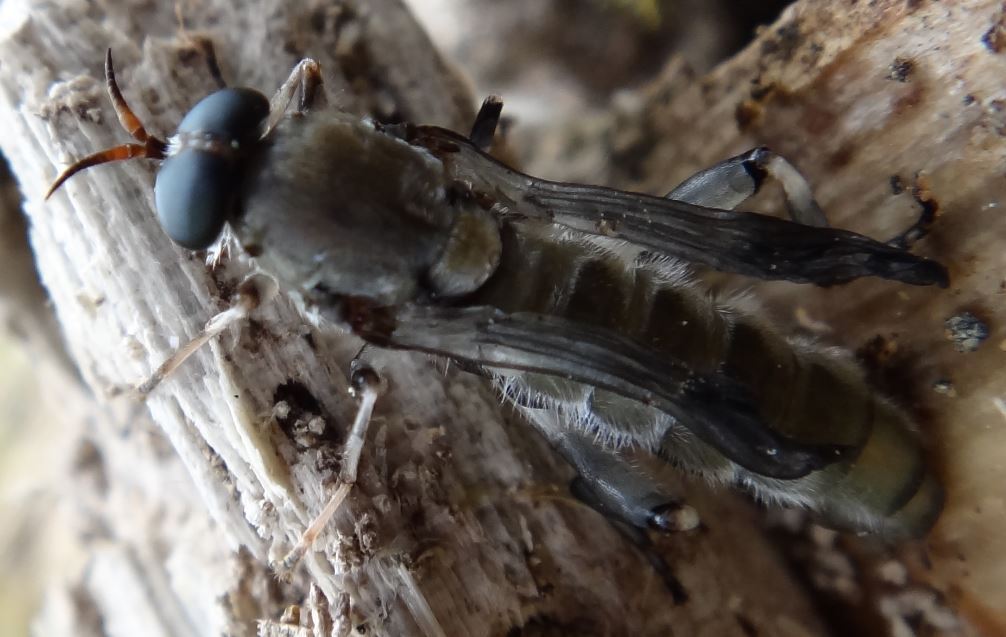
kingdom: Animalia
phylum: Arthropoda
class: Insecta
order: Diptera
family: Stratiomyidae
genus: Exaireta
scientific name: Exaireta spinigera
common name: Blue soldier fly
